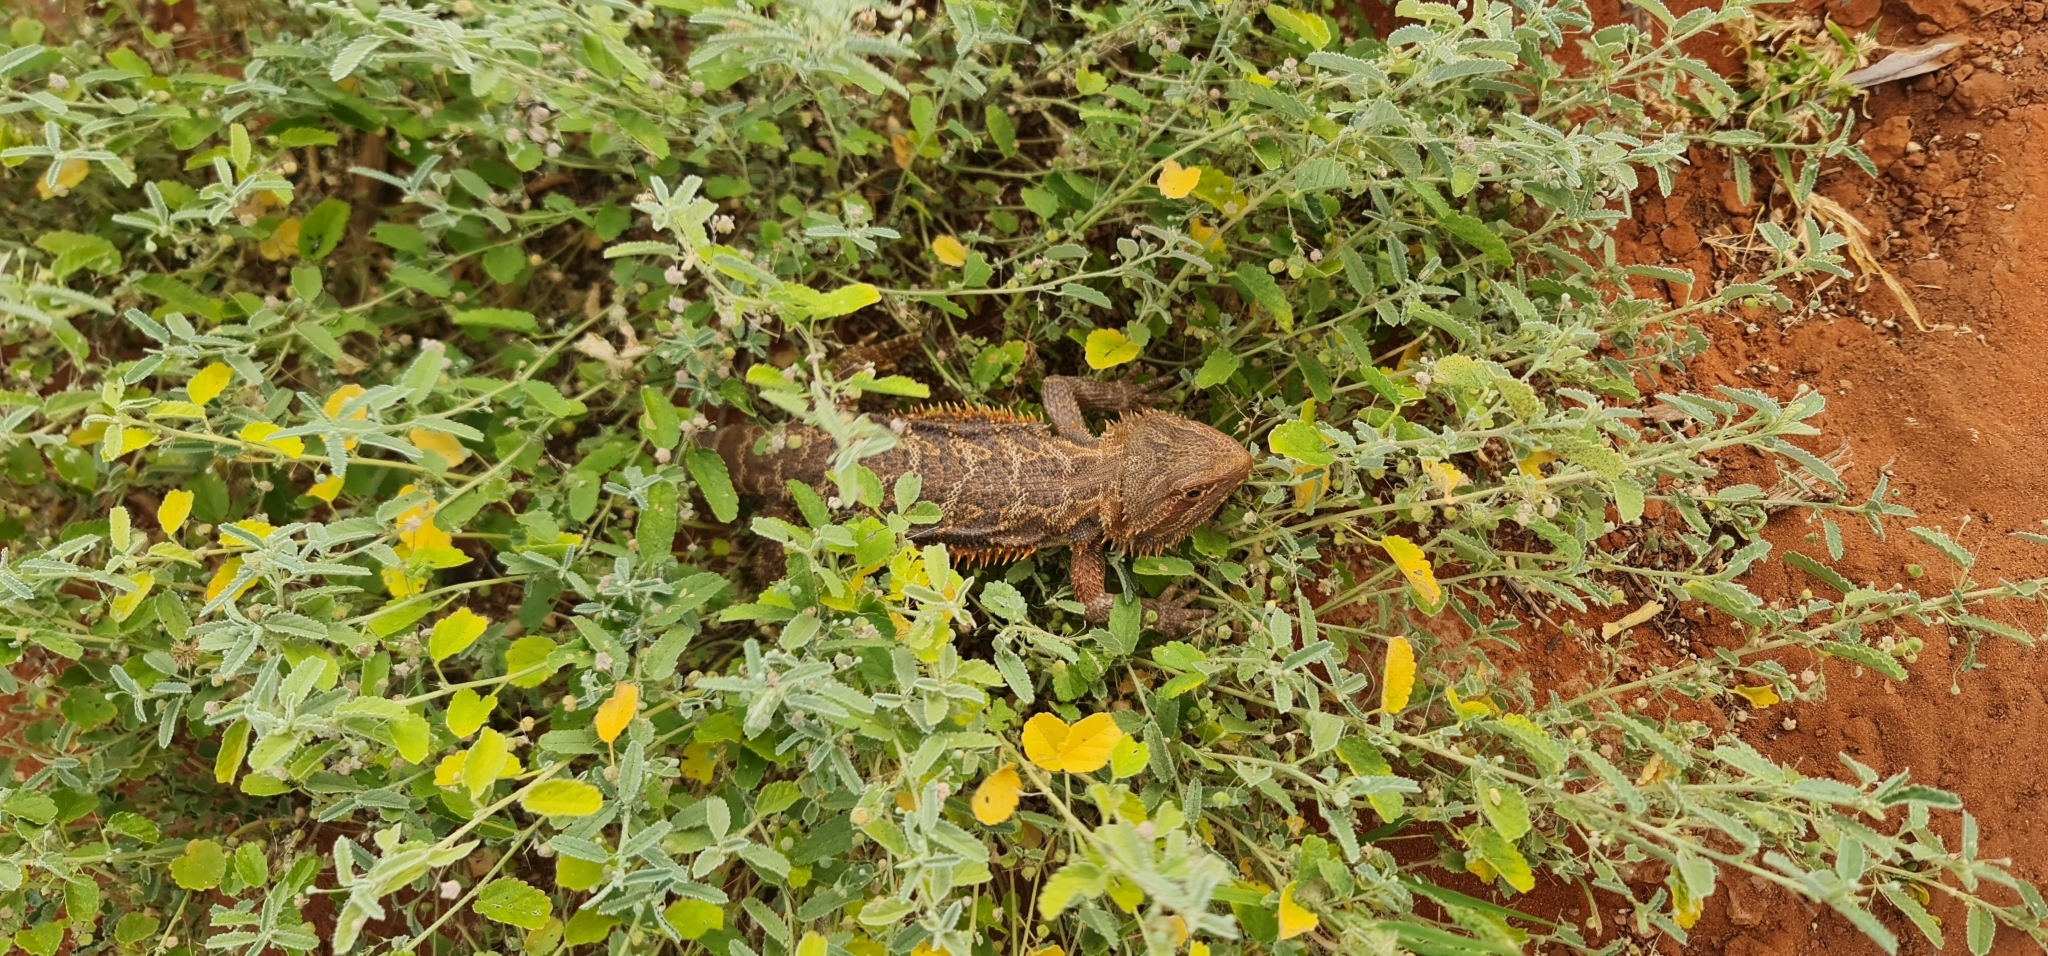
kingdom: Animalia
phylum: Chordata
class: Squamata
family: Agamidae
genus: Pogona
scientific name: Pogona vitticeps
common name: Central bearded dragon
